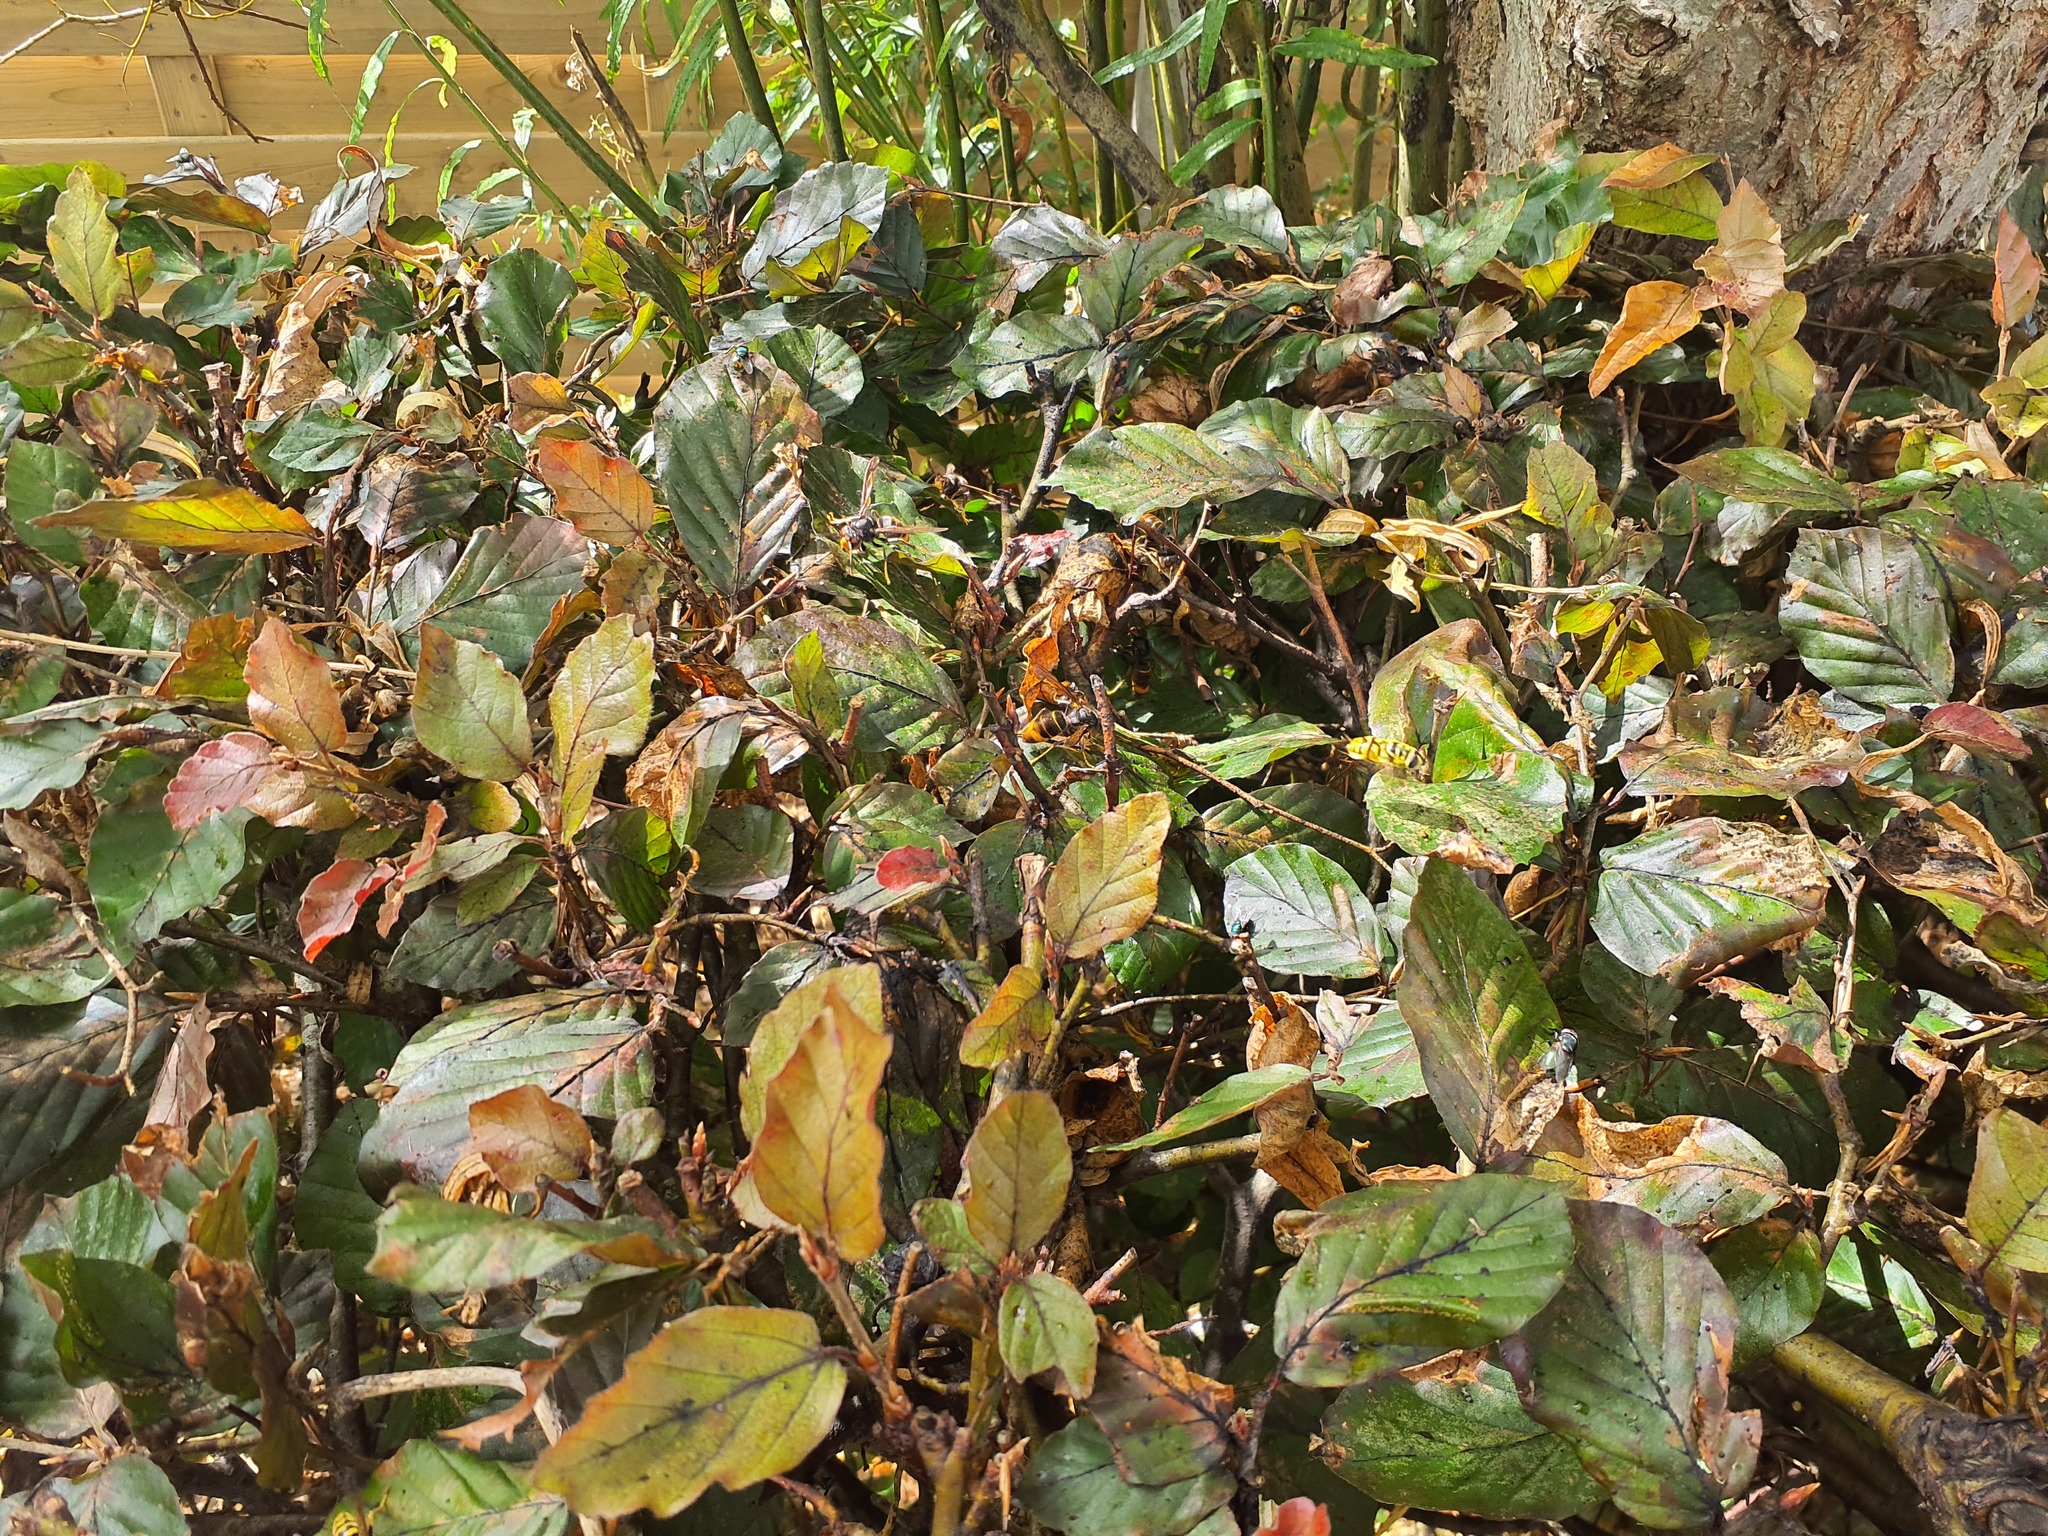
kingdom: Animalia
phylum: Arthropoda
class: Insecta
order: Hymenoptera
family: Vespidae
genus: Vespa
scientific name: Vespa velutina
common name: Asian hornet
